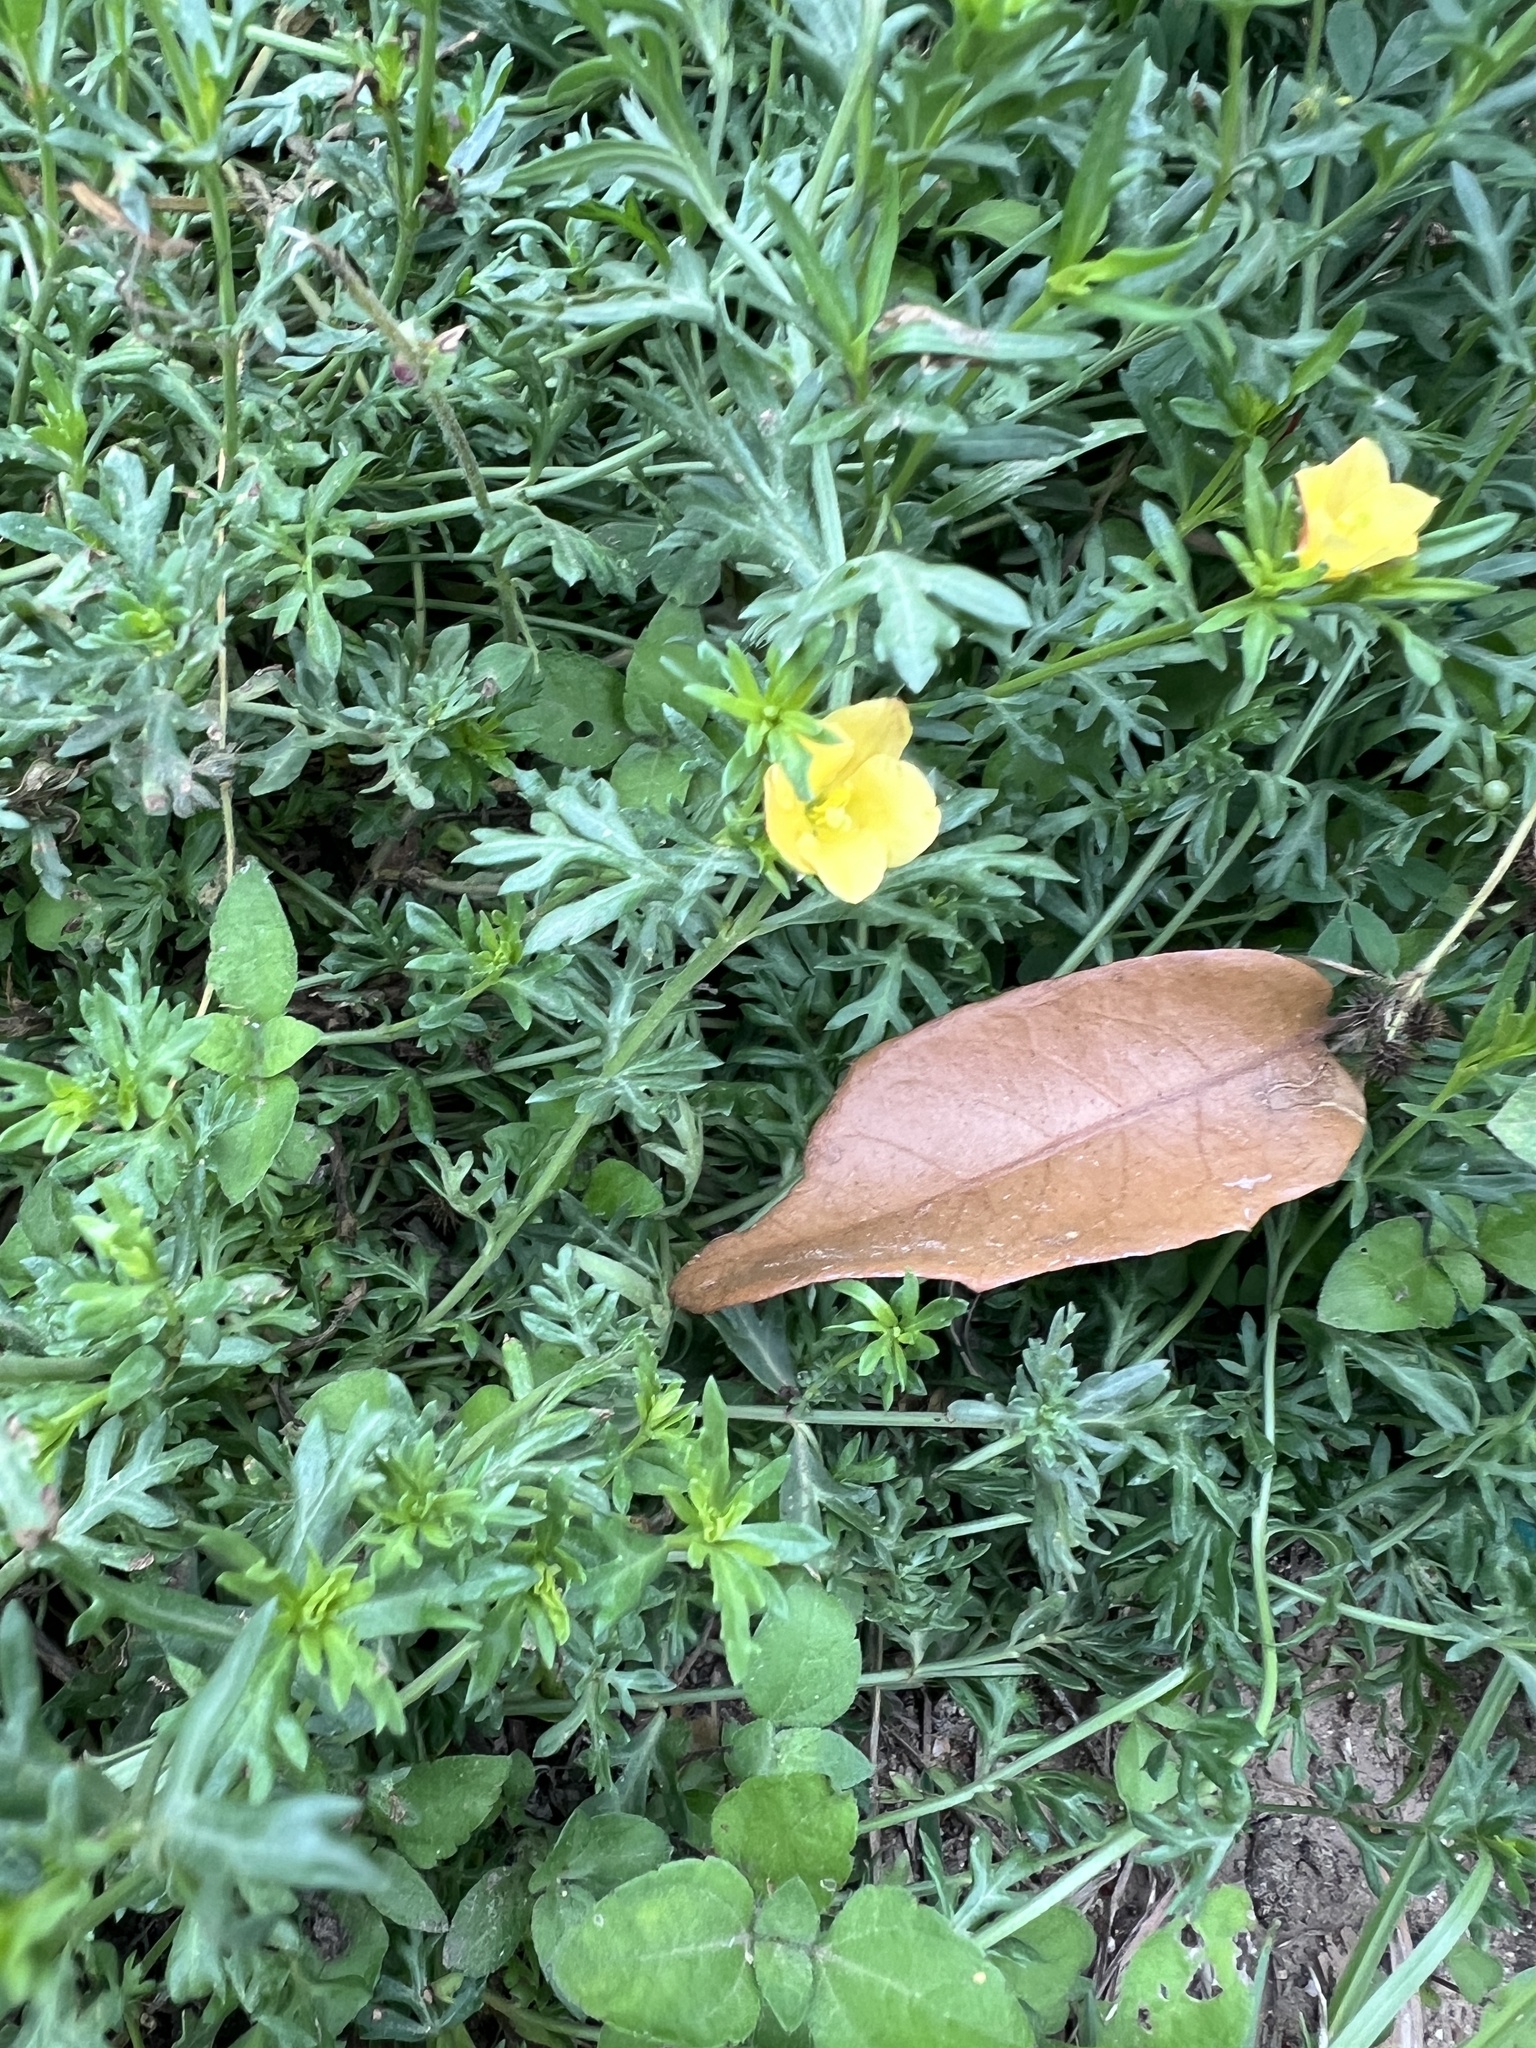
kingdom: Plantae
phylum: Tracheophyta
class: Magnoliopsida
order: Lamiales
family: Oleaceae
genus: Menodora
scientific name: Menodora heterophylla
